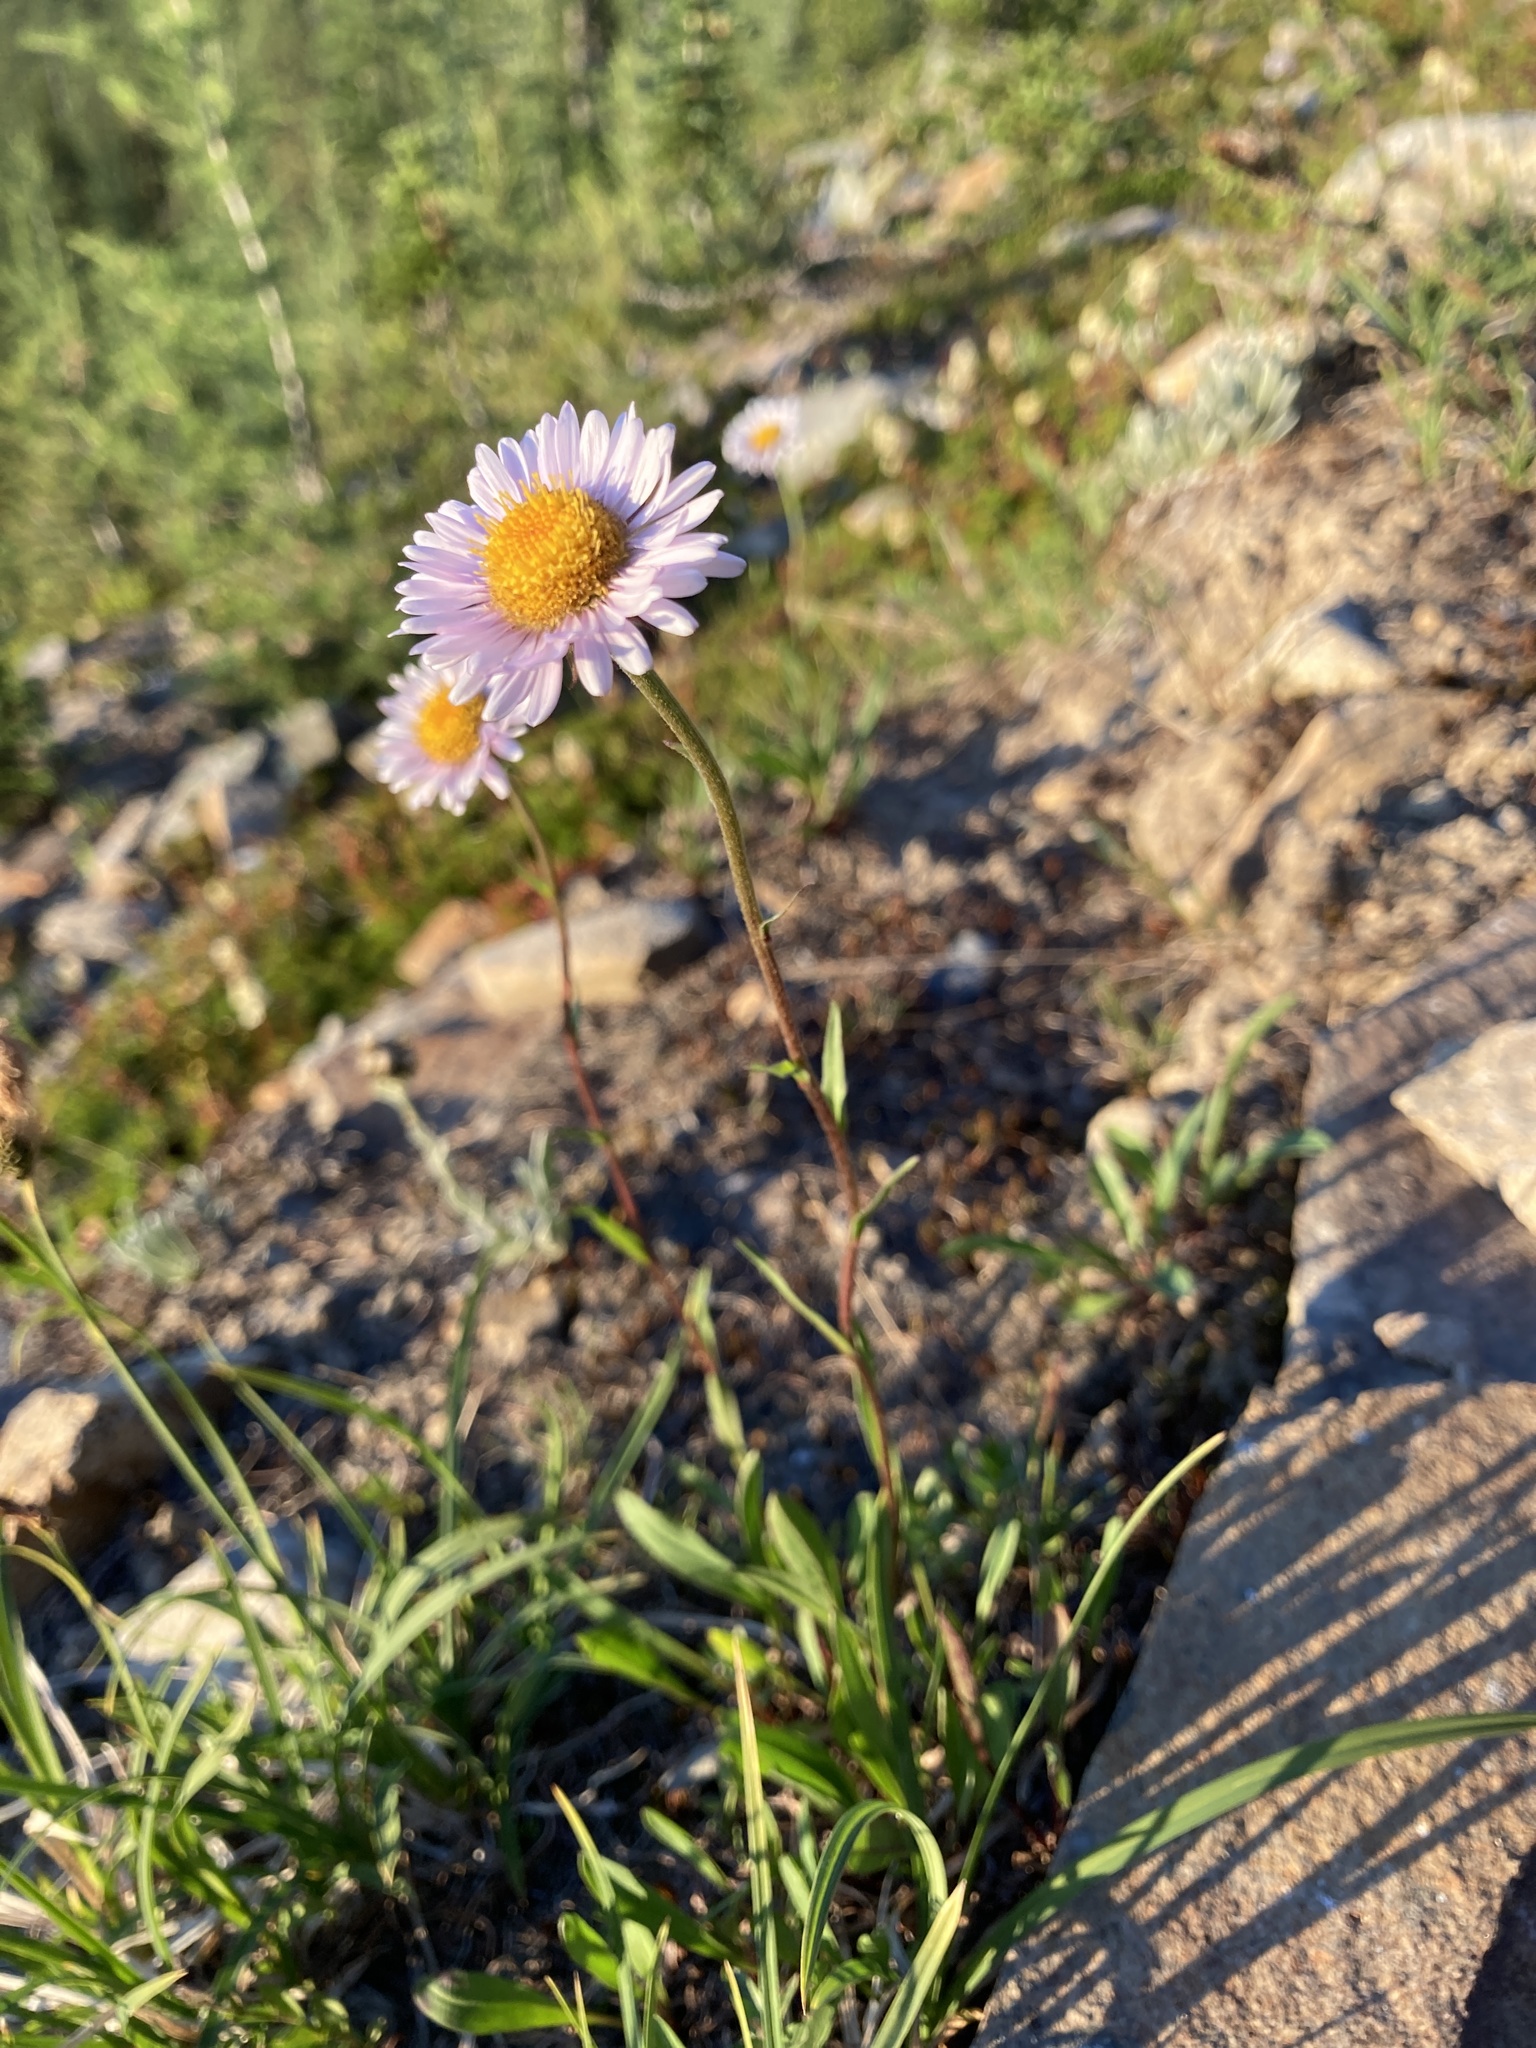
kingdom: Plantae
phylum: Tracheophyta
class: Magnoliopsida
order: Asterales
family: Asteraceae
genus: Erigeron
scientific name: Erigeron glacialis
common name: Subalpine fleabane
